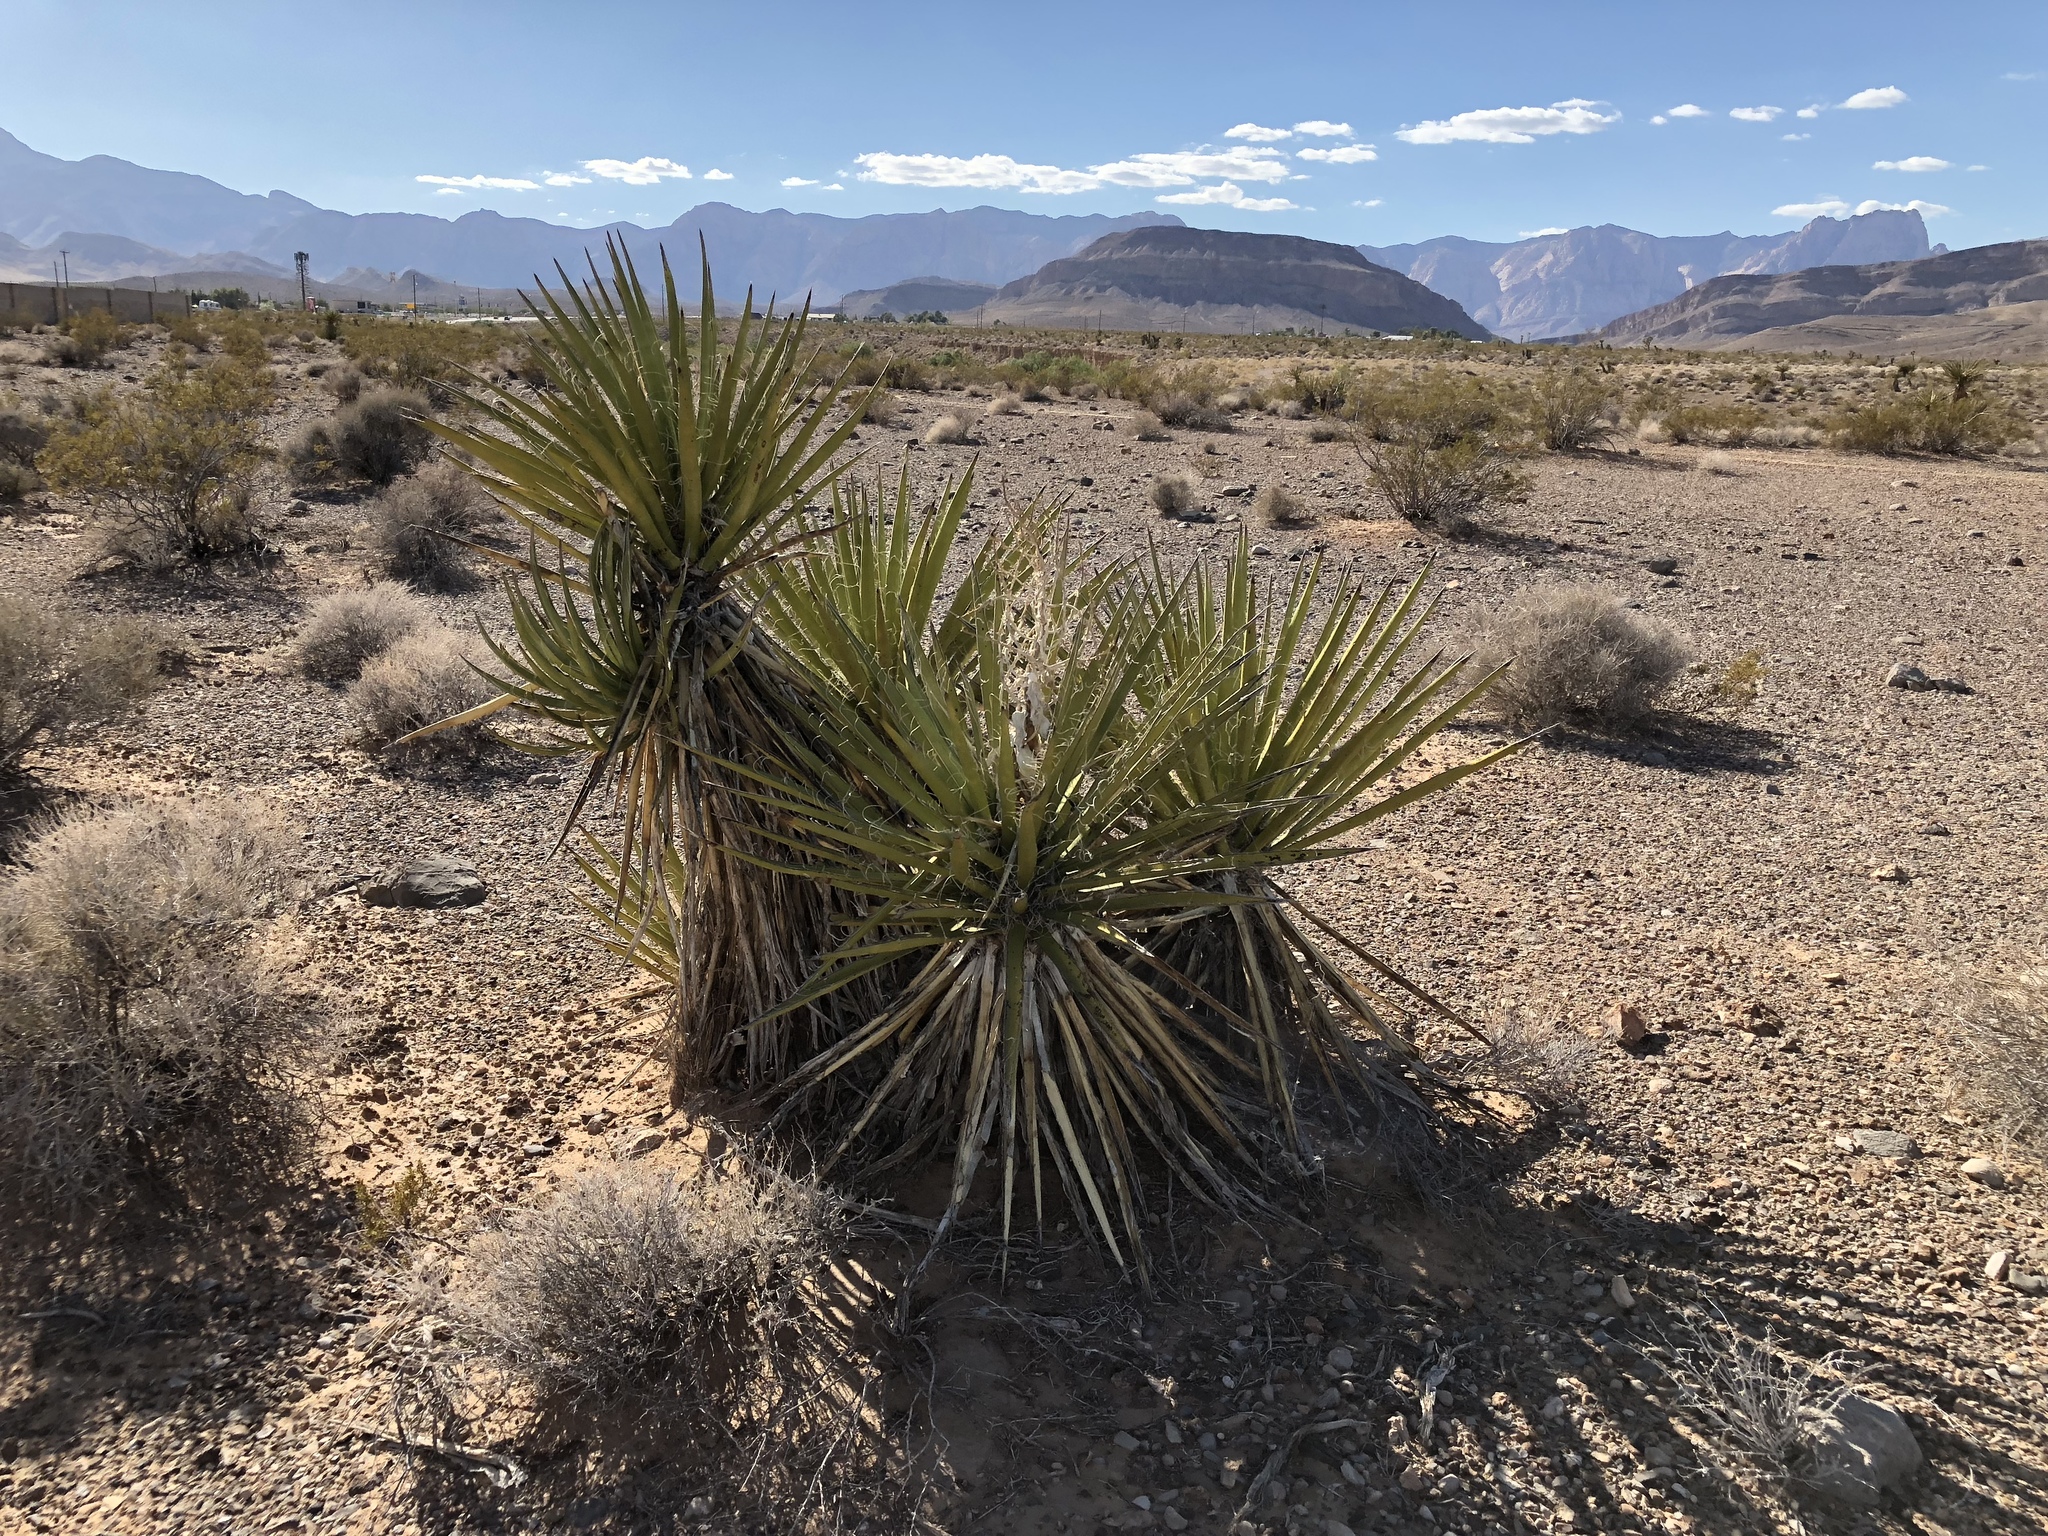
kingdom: Plantae
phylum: Tracheophyta
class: Liliopsida
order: Asparagales
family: Asparagaceae
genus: Yucca
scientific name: Yucca schidigera
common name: Mojave yucca
